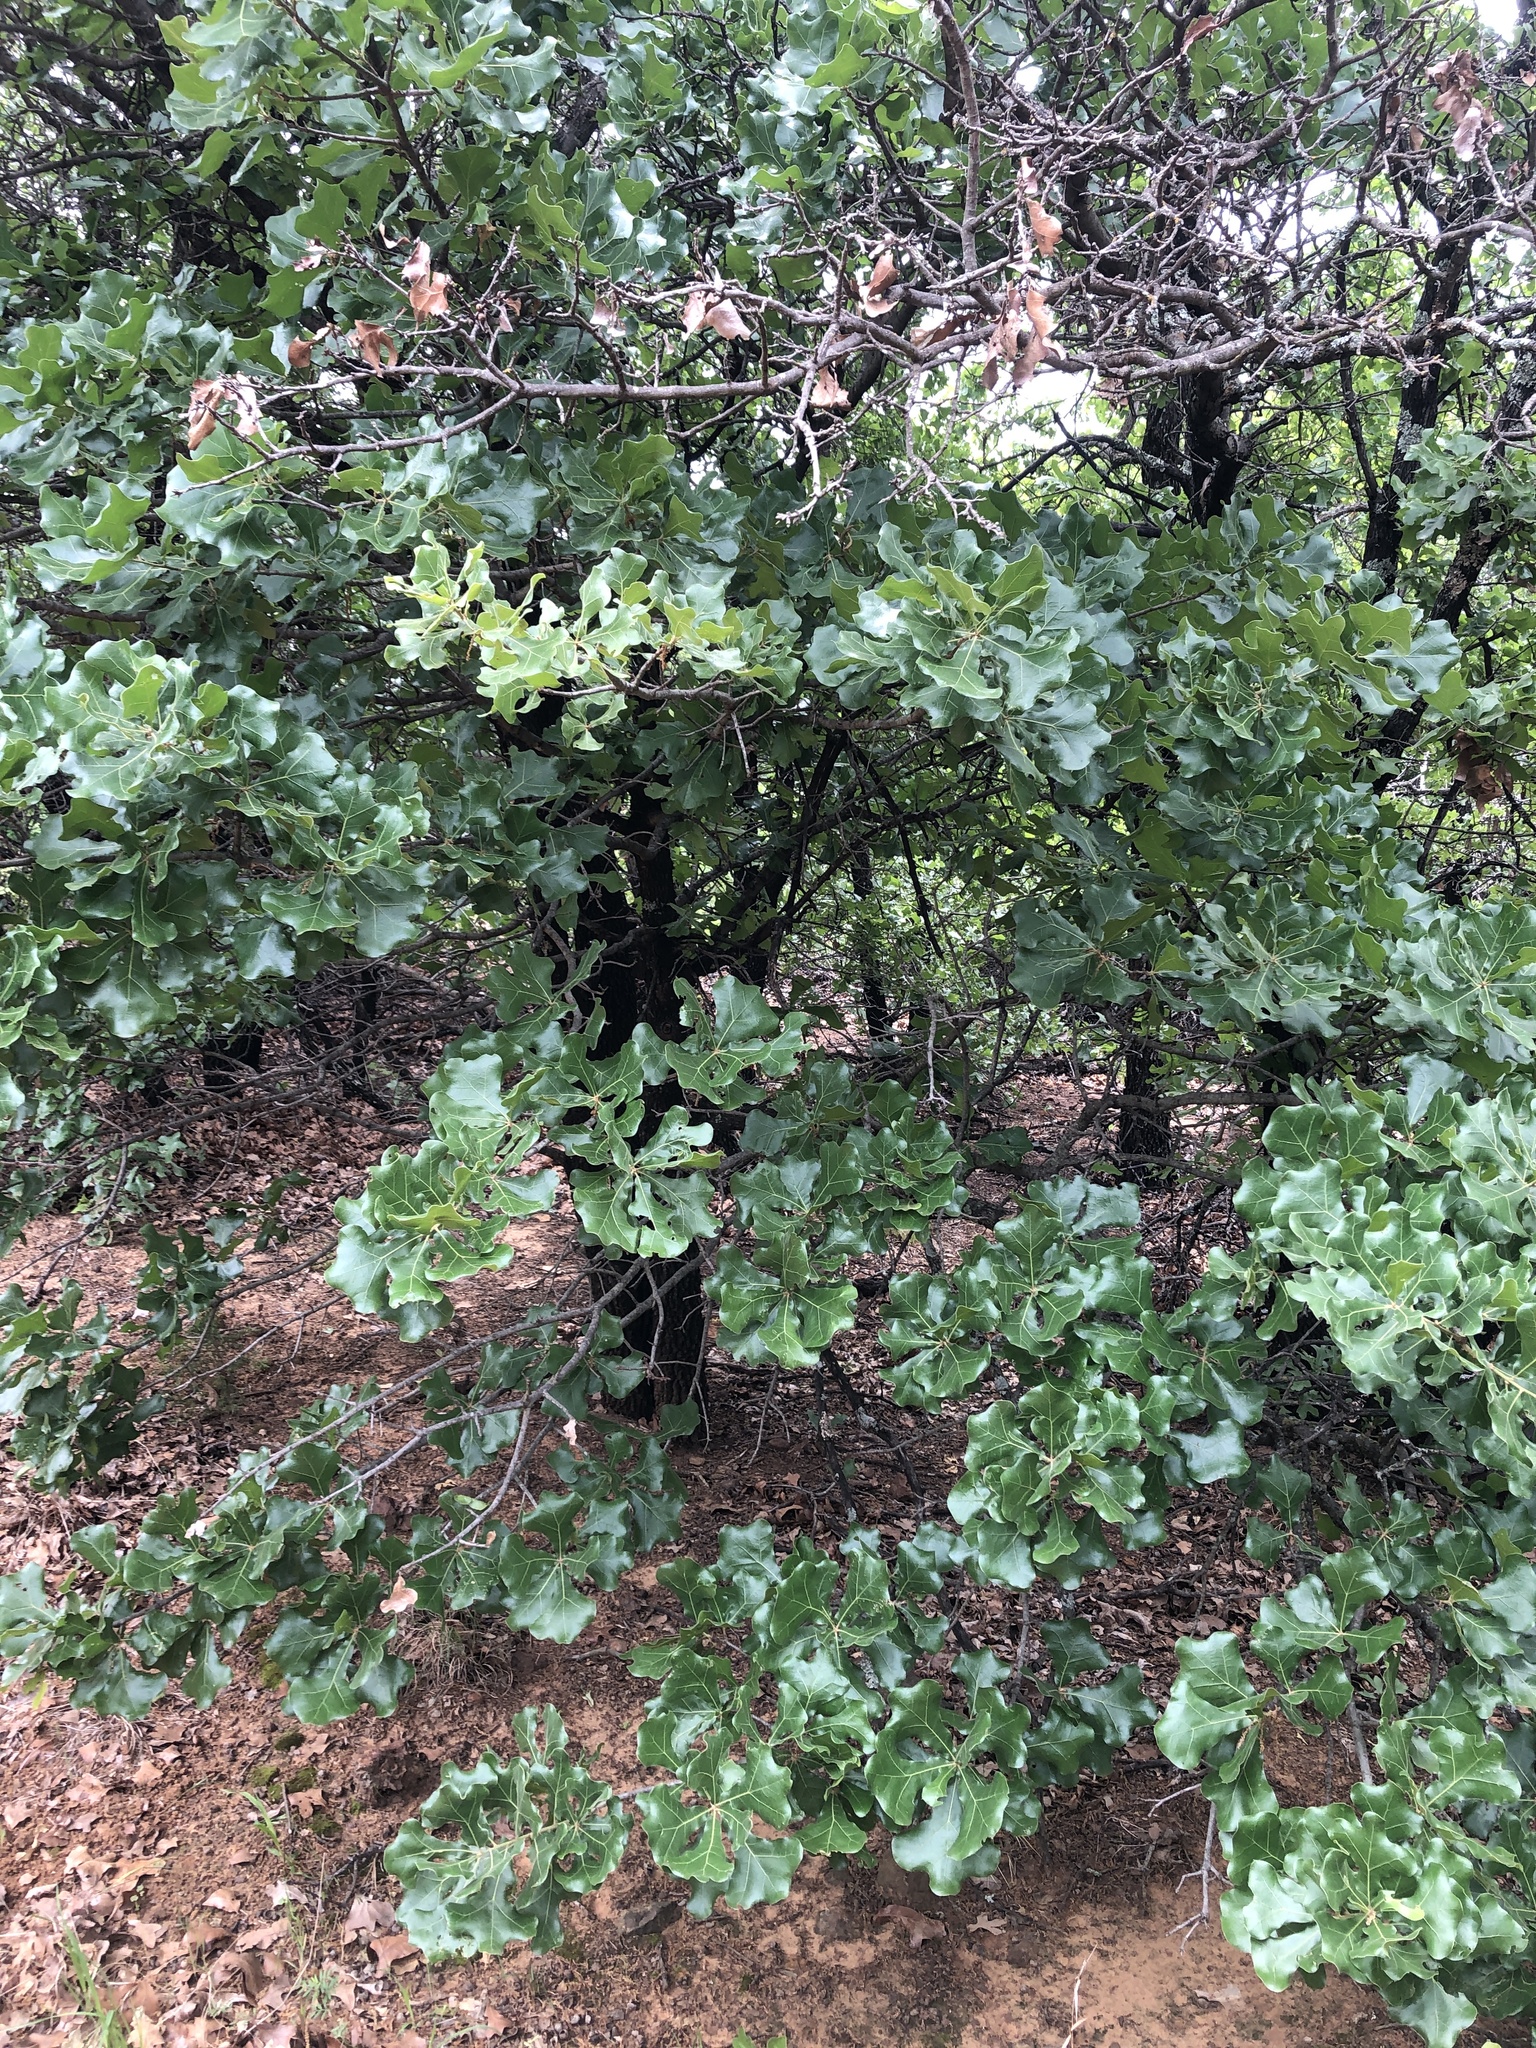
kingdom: Plantae
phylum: Tracheophyta
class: Magnoliopsida
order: Fagales
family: Fagaceae
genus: Quercus
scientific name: Quercus marilandica
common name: Blackjack oak
